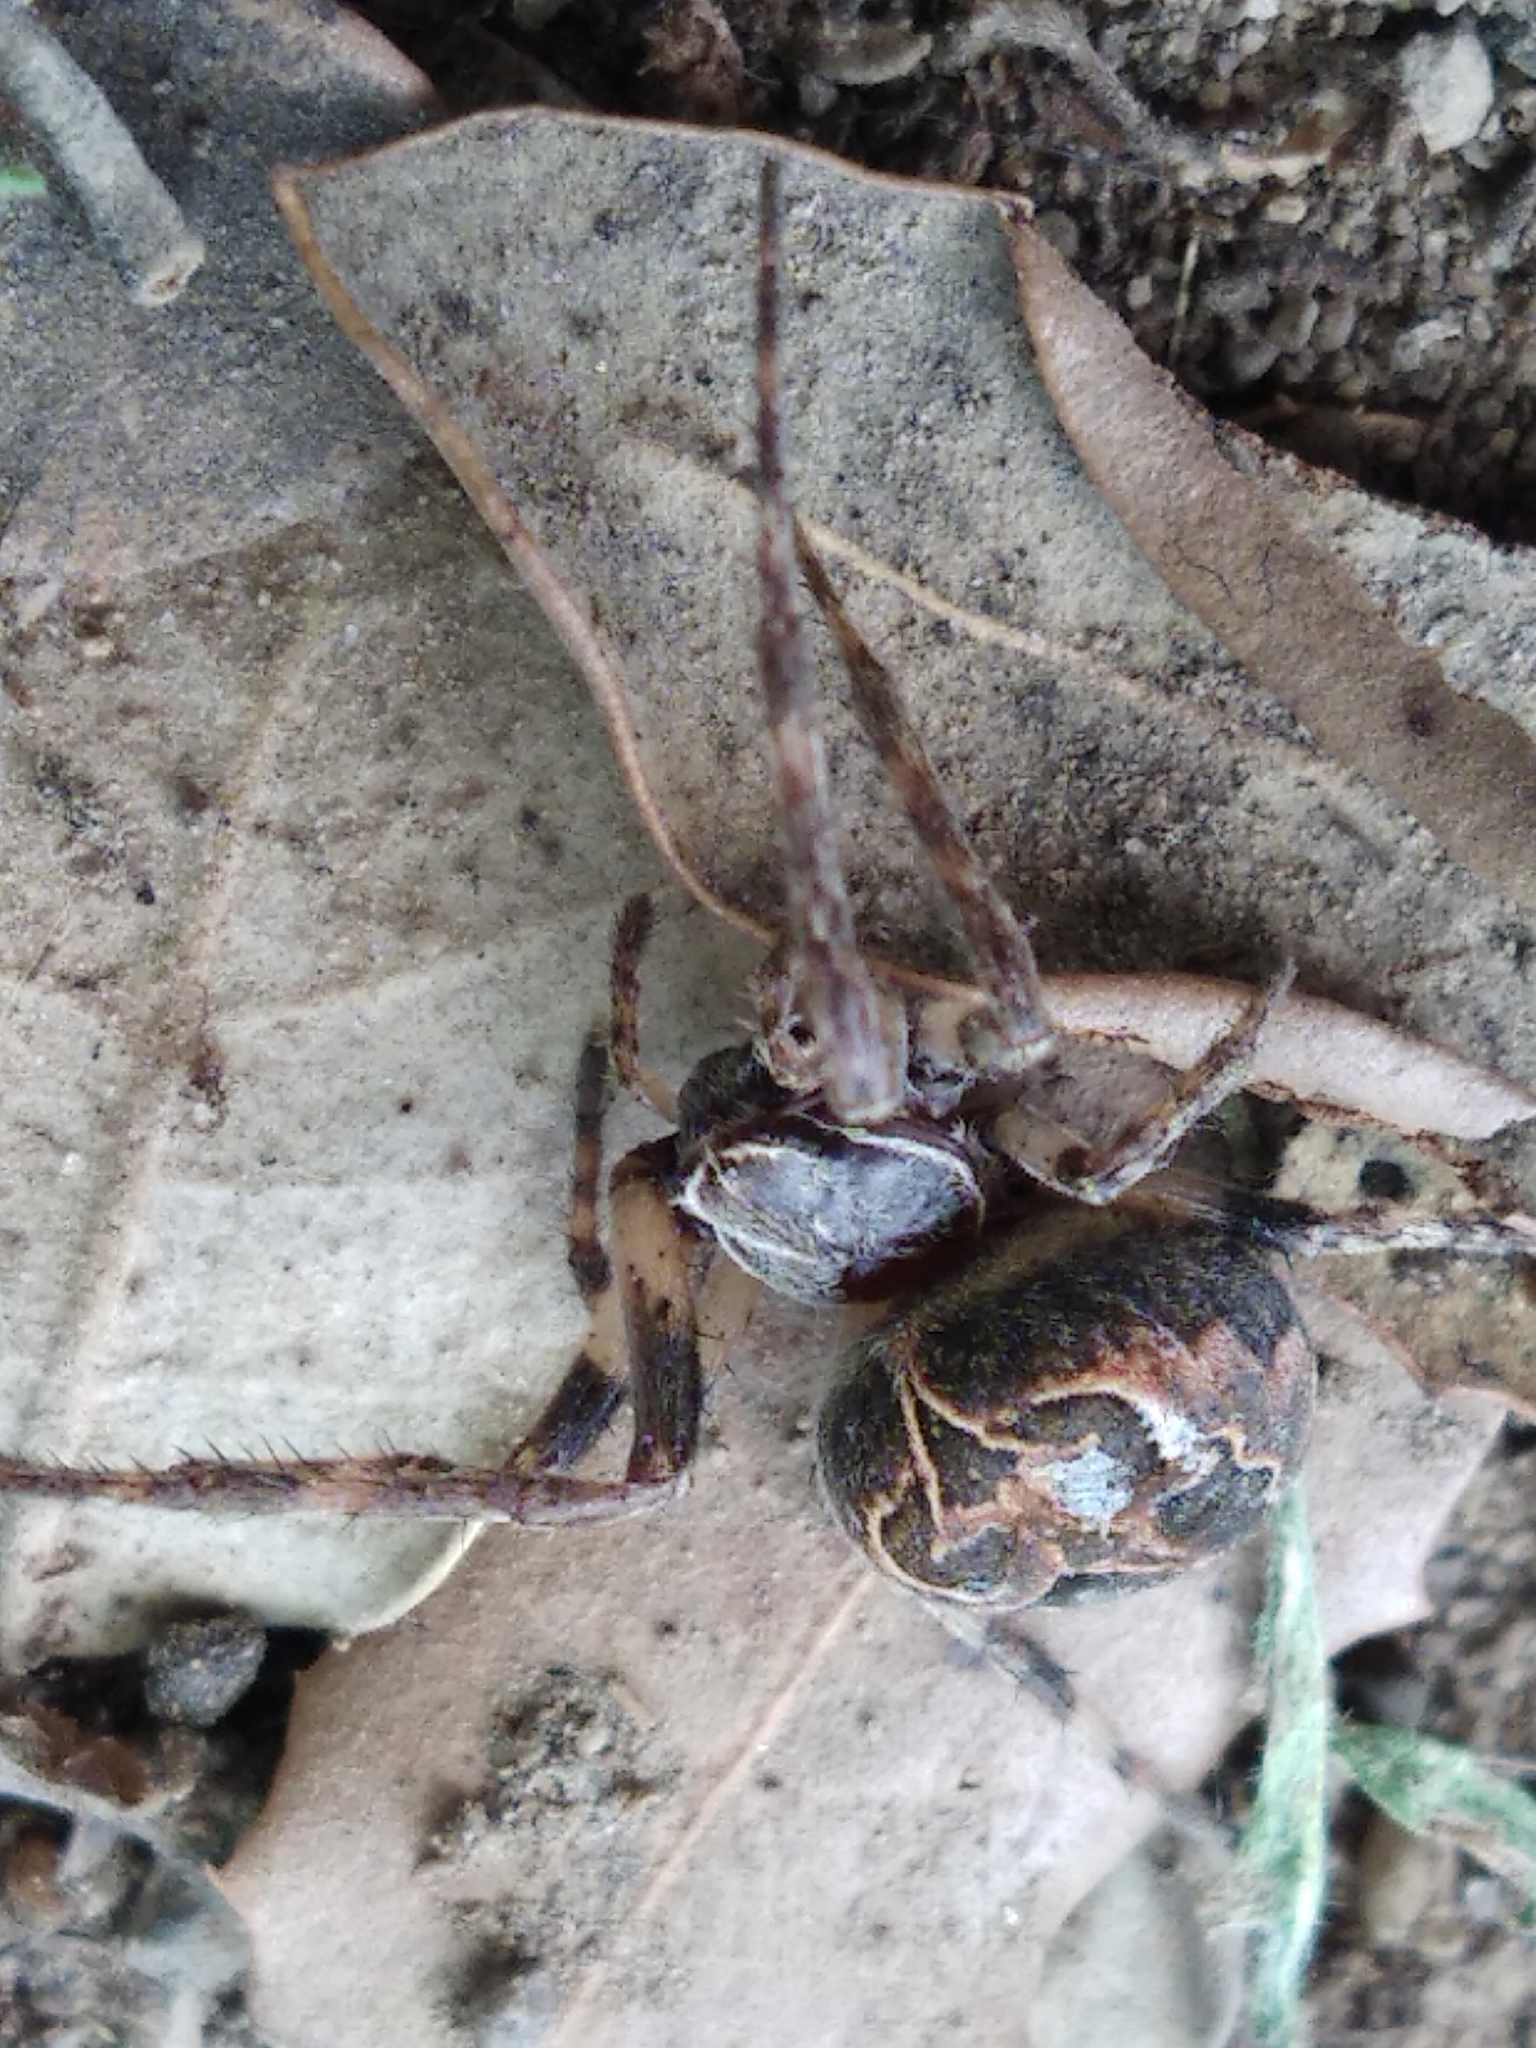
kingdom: Animalia
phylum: Arthropoda
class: Arachnida
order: Araneae
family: Araneidae
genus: Larinioides
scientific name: Larinioides sclopetarius
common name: Bridge orbweaver
